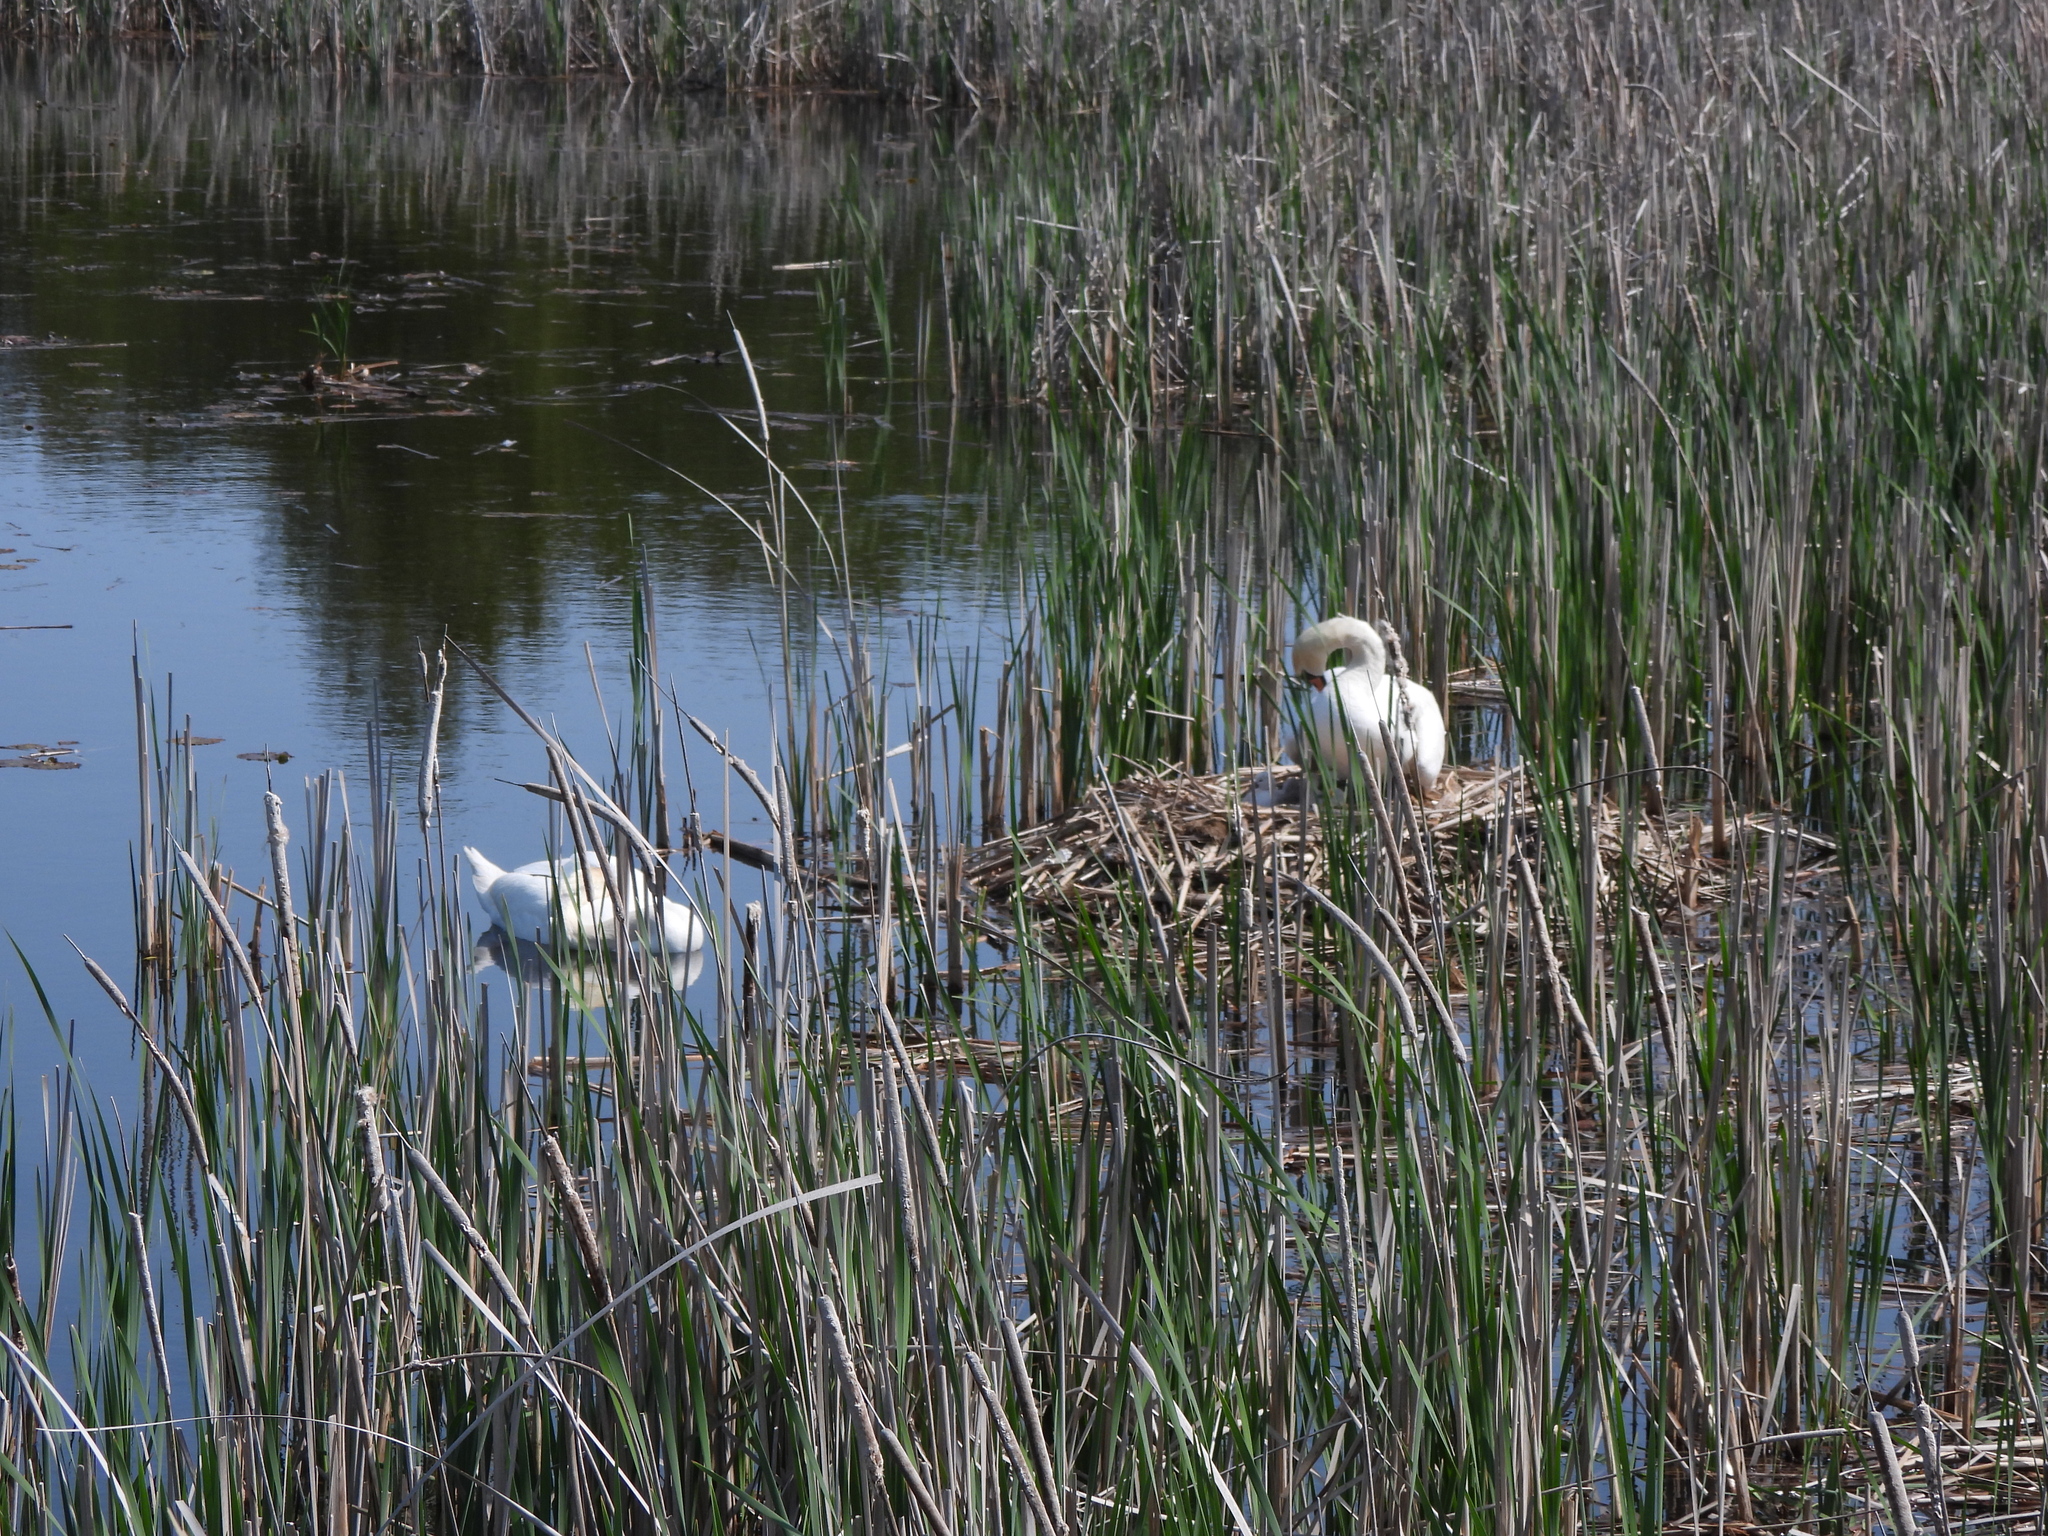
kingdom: Animalia
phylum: Chordata
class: Aves
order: Anseriformes
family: Anatidae
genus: Cygnus
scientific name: Cygnus olor
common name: Mute swan
